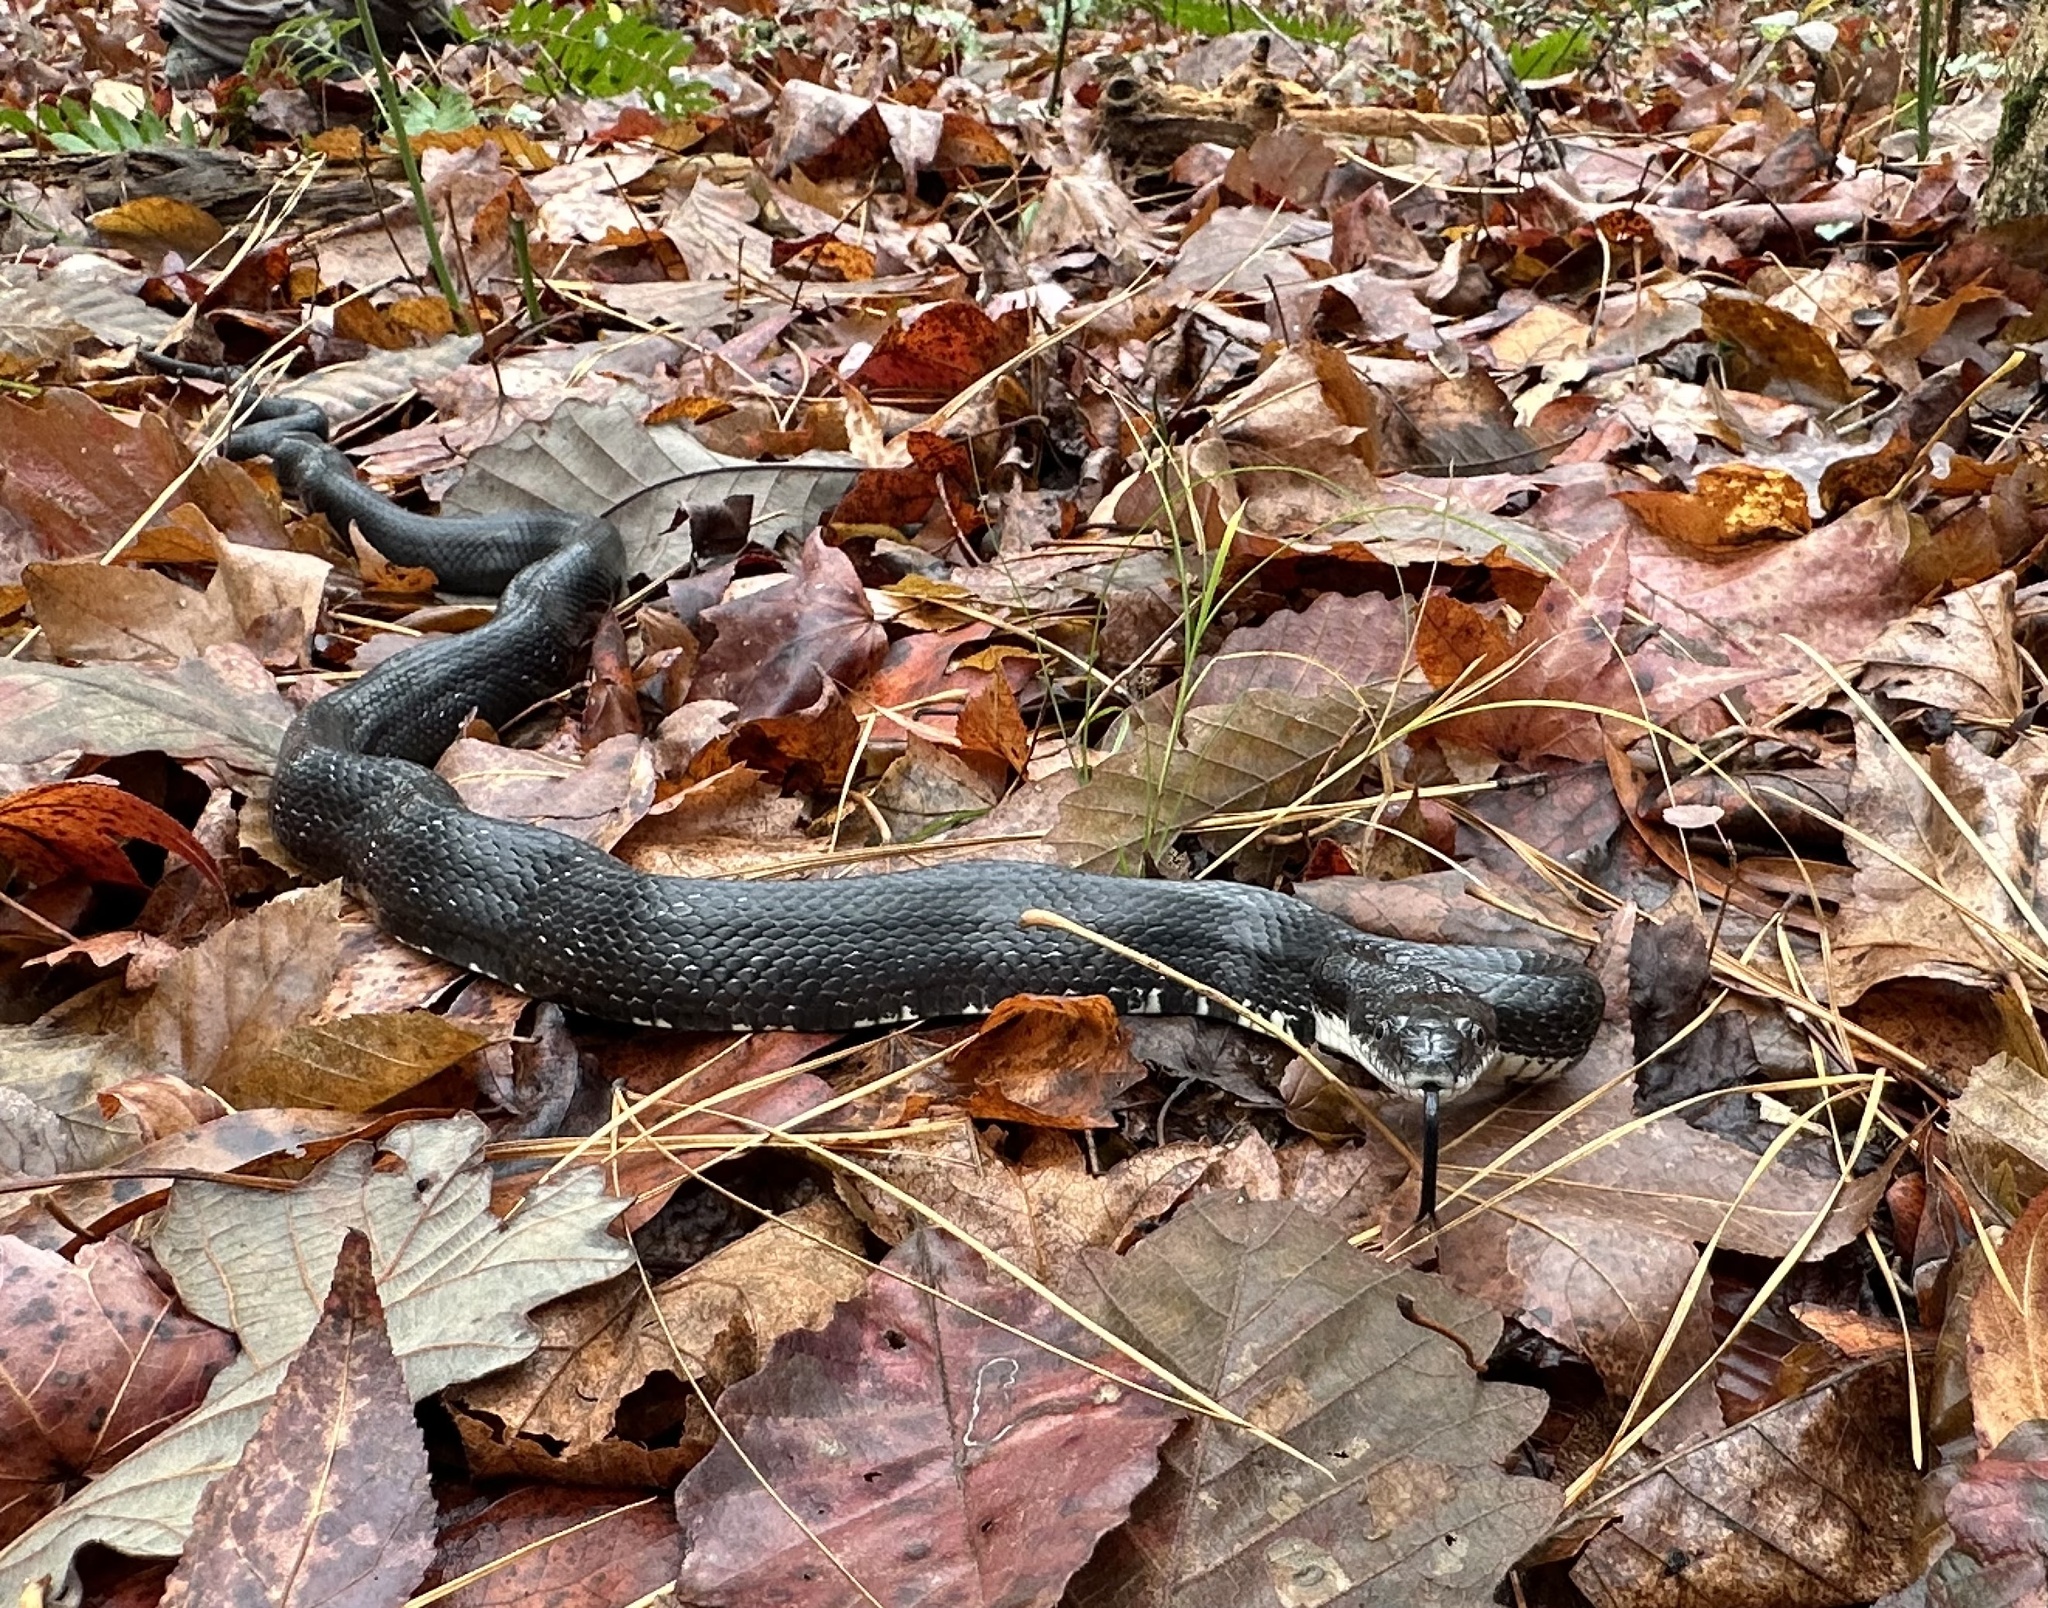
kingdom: Animalia
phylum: Chordata
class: Squamata
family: Colubridae
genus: Pantherophis
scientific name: Pantherophis alleghaniensis
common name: Eastern rat snake
